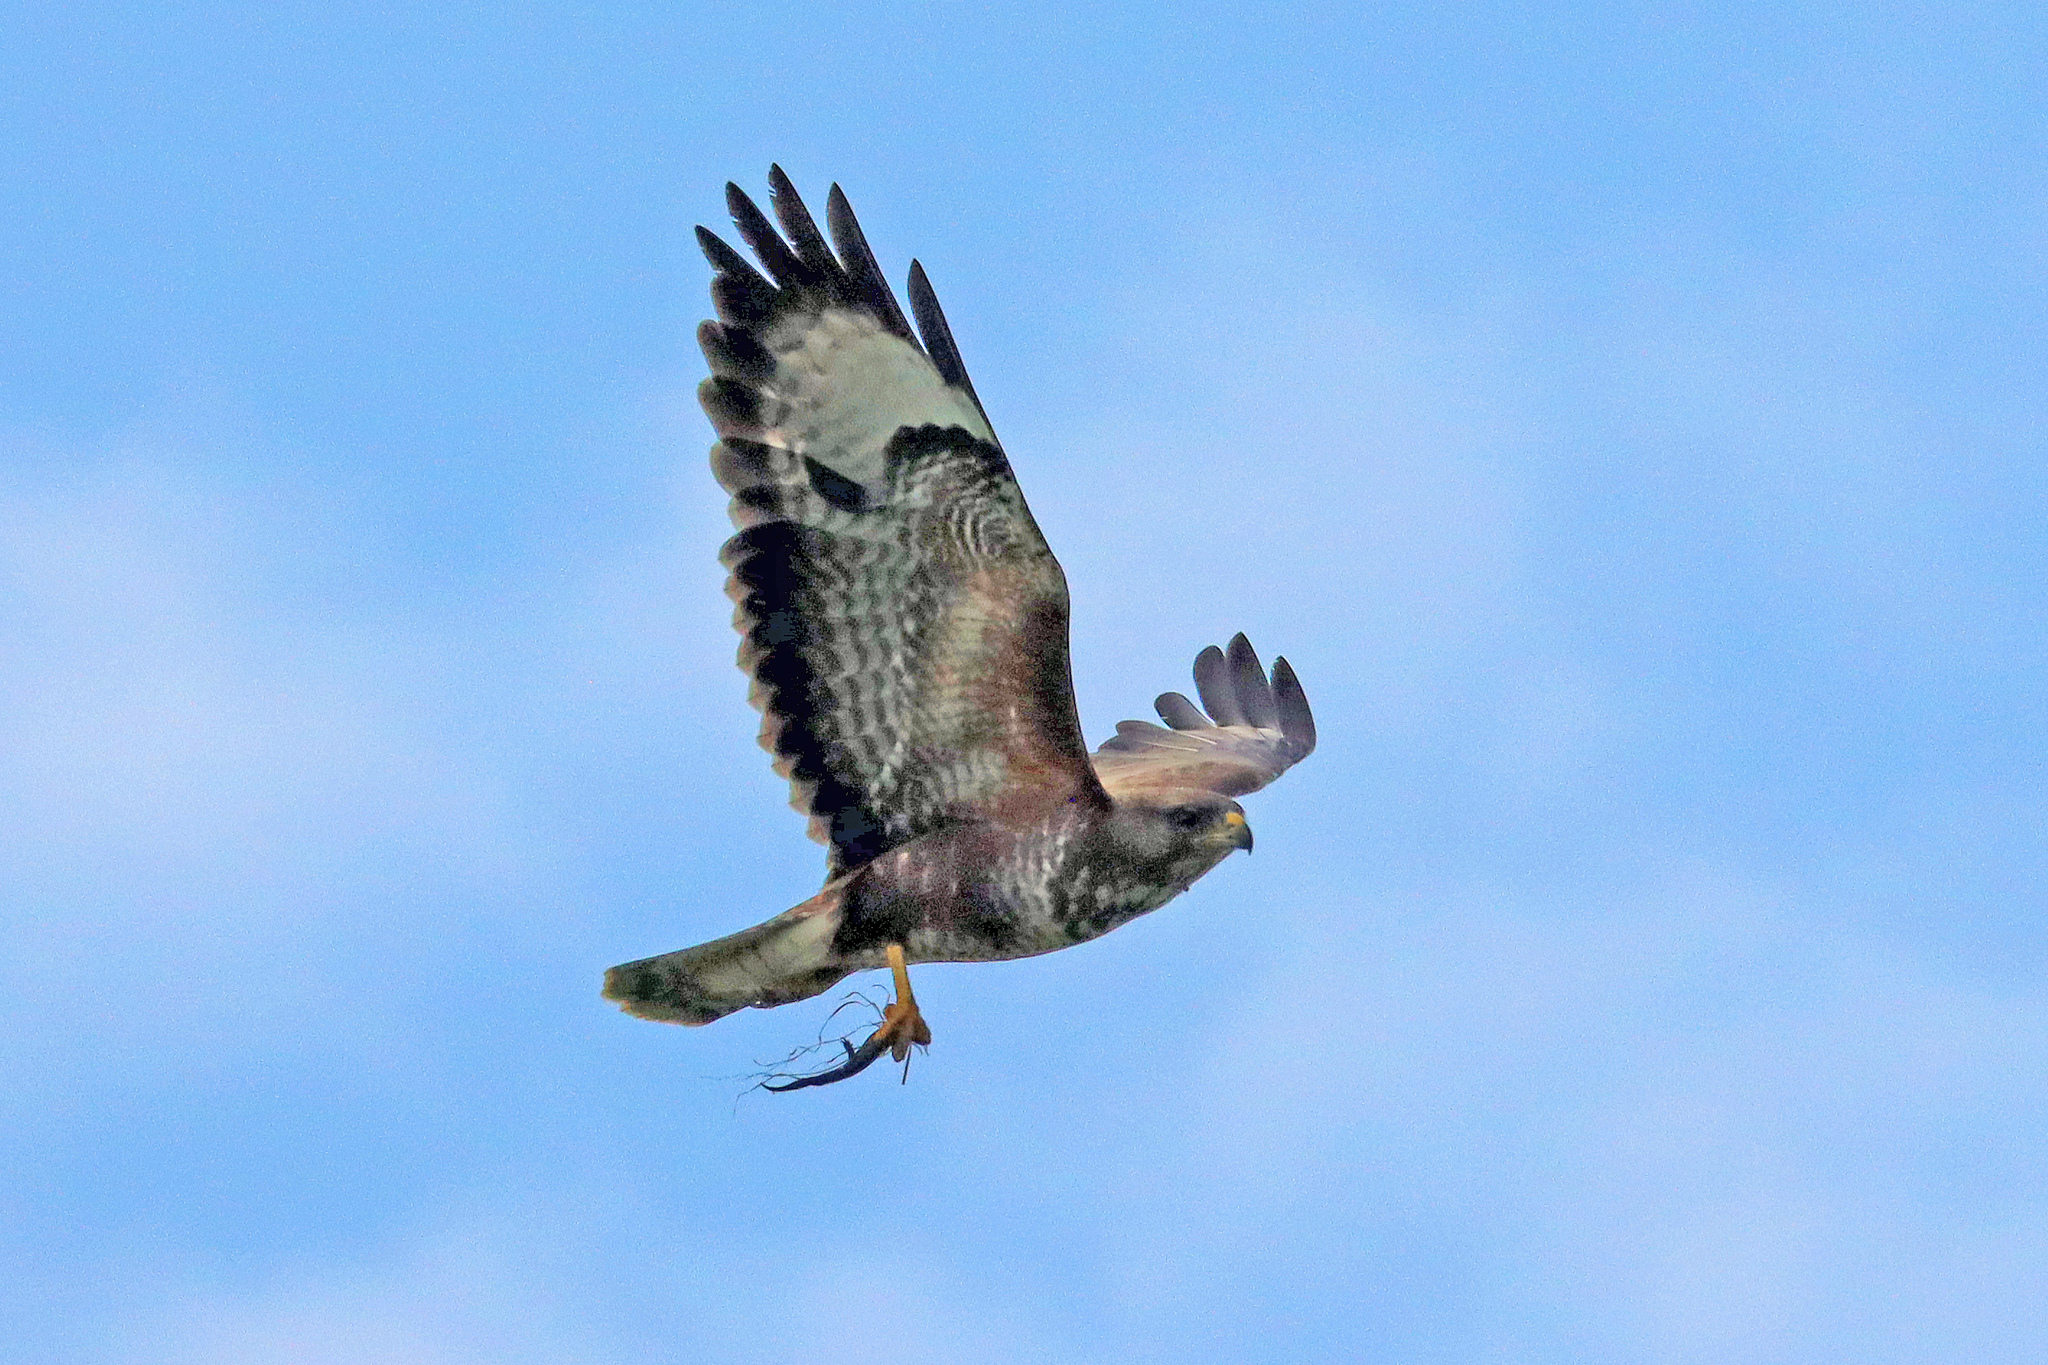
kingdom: Animalia
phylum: Chordata
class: Amphibia
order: Caudata
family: Salamandridae
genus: Triturus
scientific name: Triturus cristatus
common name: Crested newt
